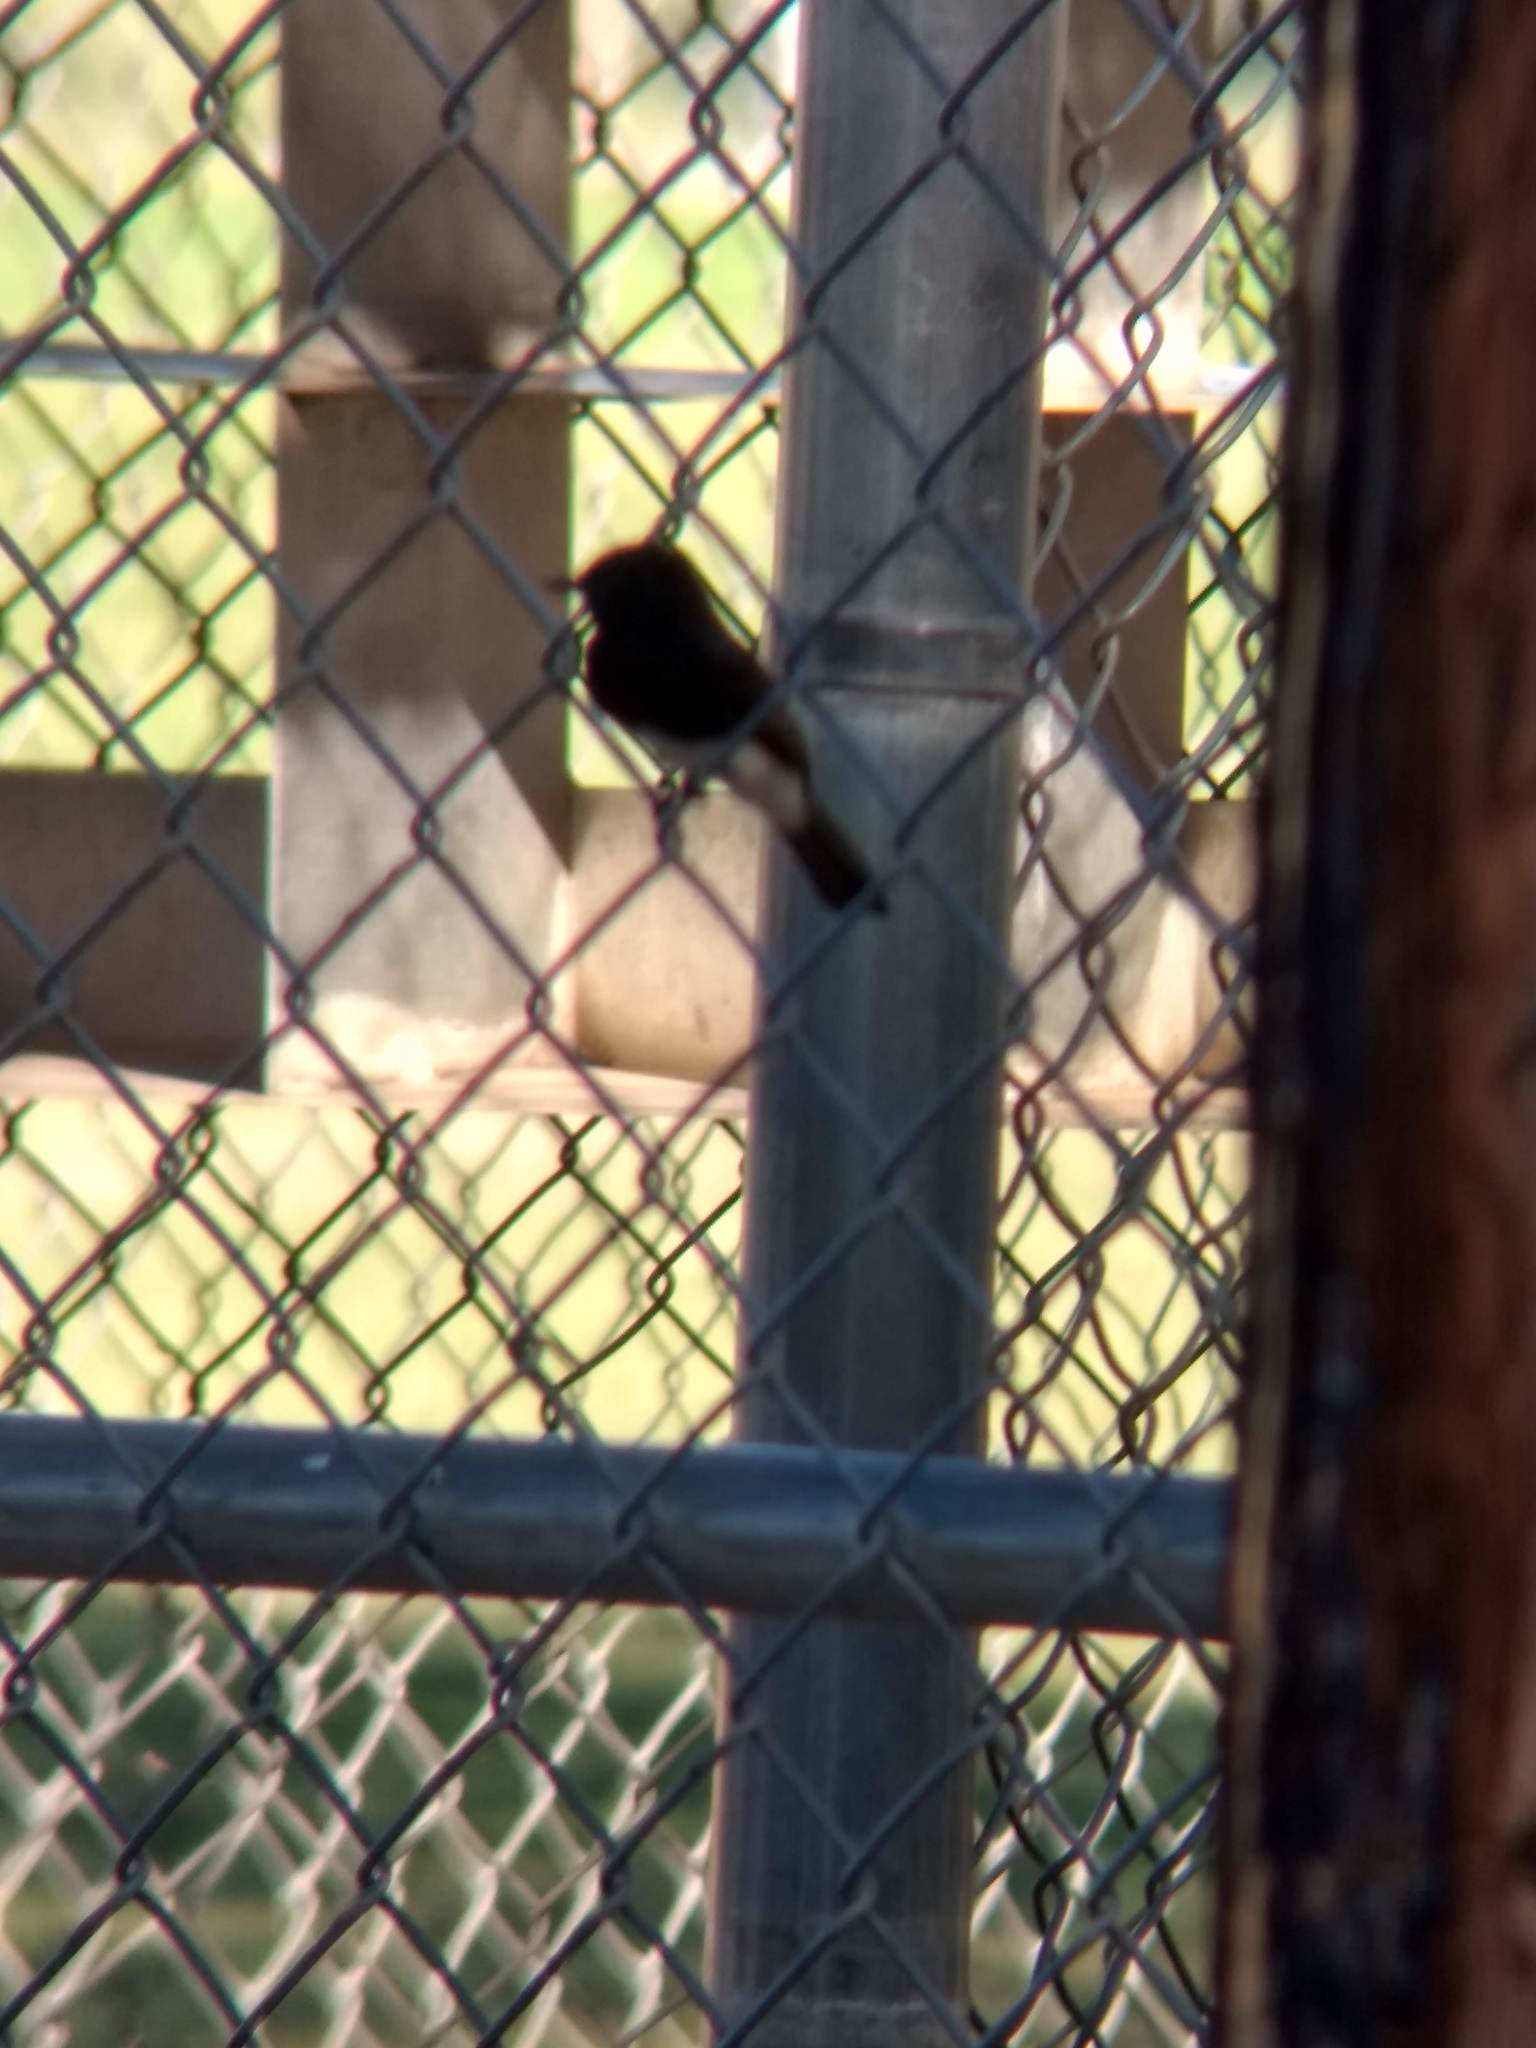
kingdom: Animalia
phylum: Chordata
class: Aves
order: Passeriformes
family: Tyrannidae
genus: Sayornis
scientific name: Sayornis nigricans
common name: Black phoebe
